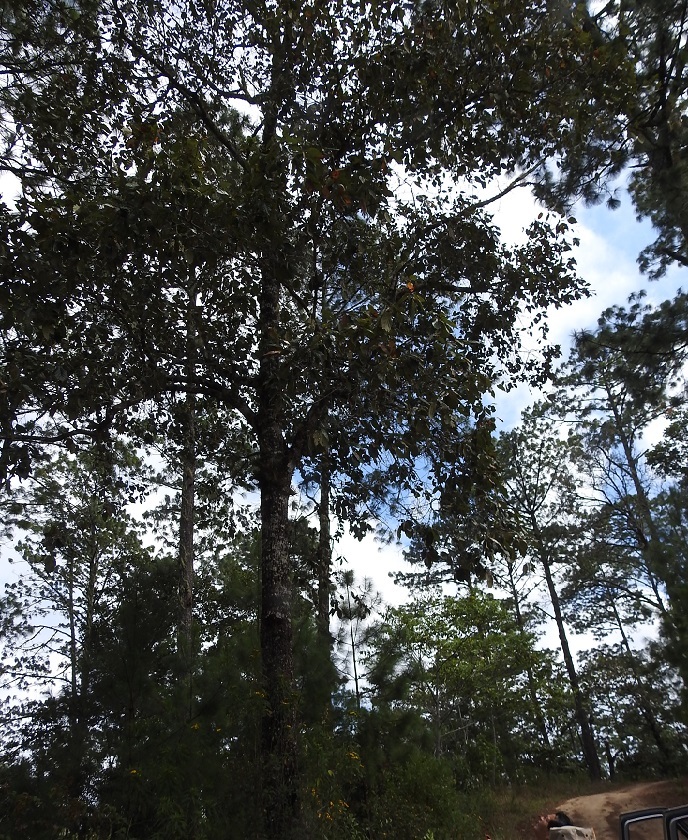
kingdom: Plantae
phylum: Tracheophyta
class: Magnoliopsida
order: Fagales
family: Fagaceae
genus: Quercus
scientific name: Quercus scytophylla
